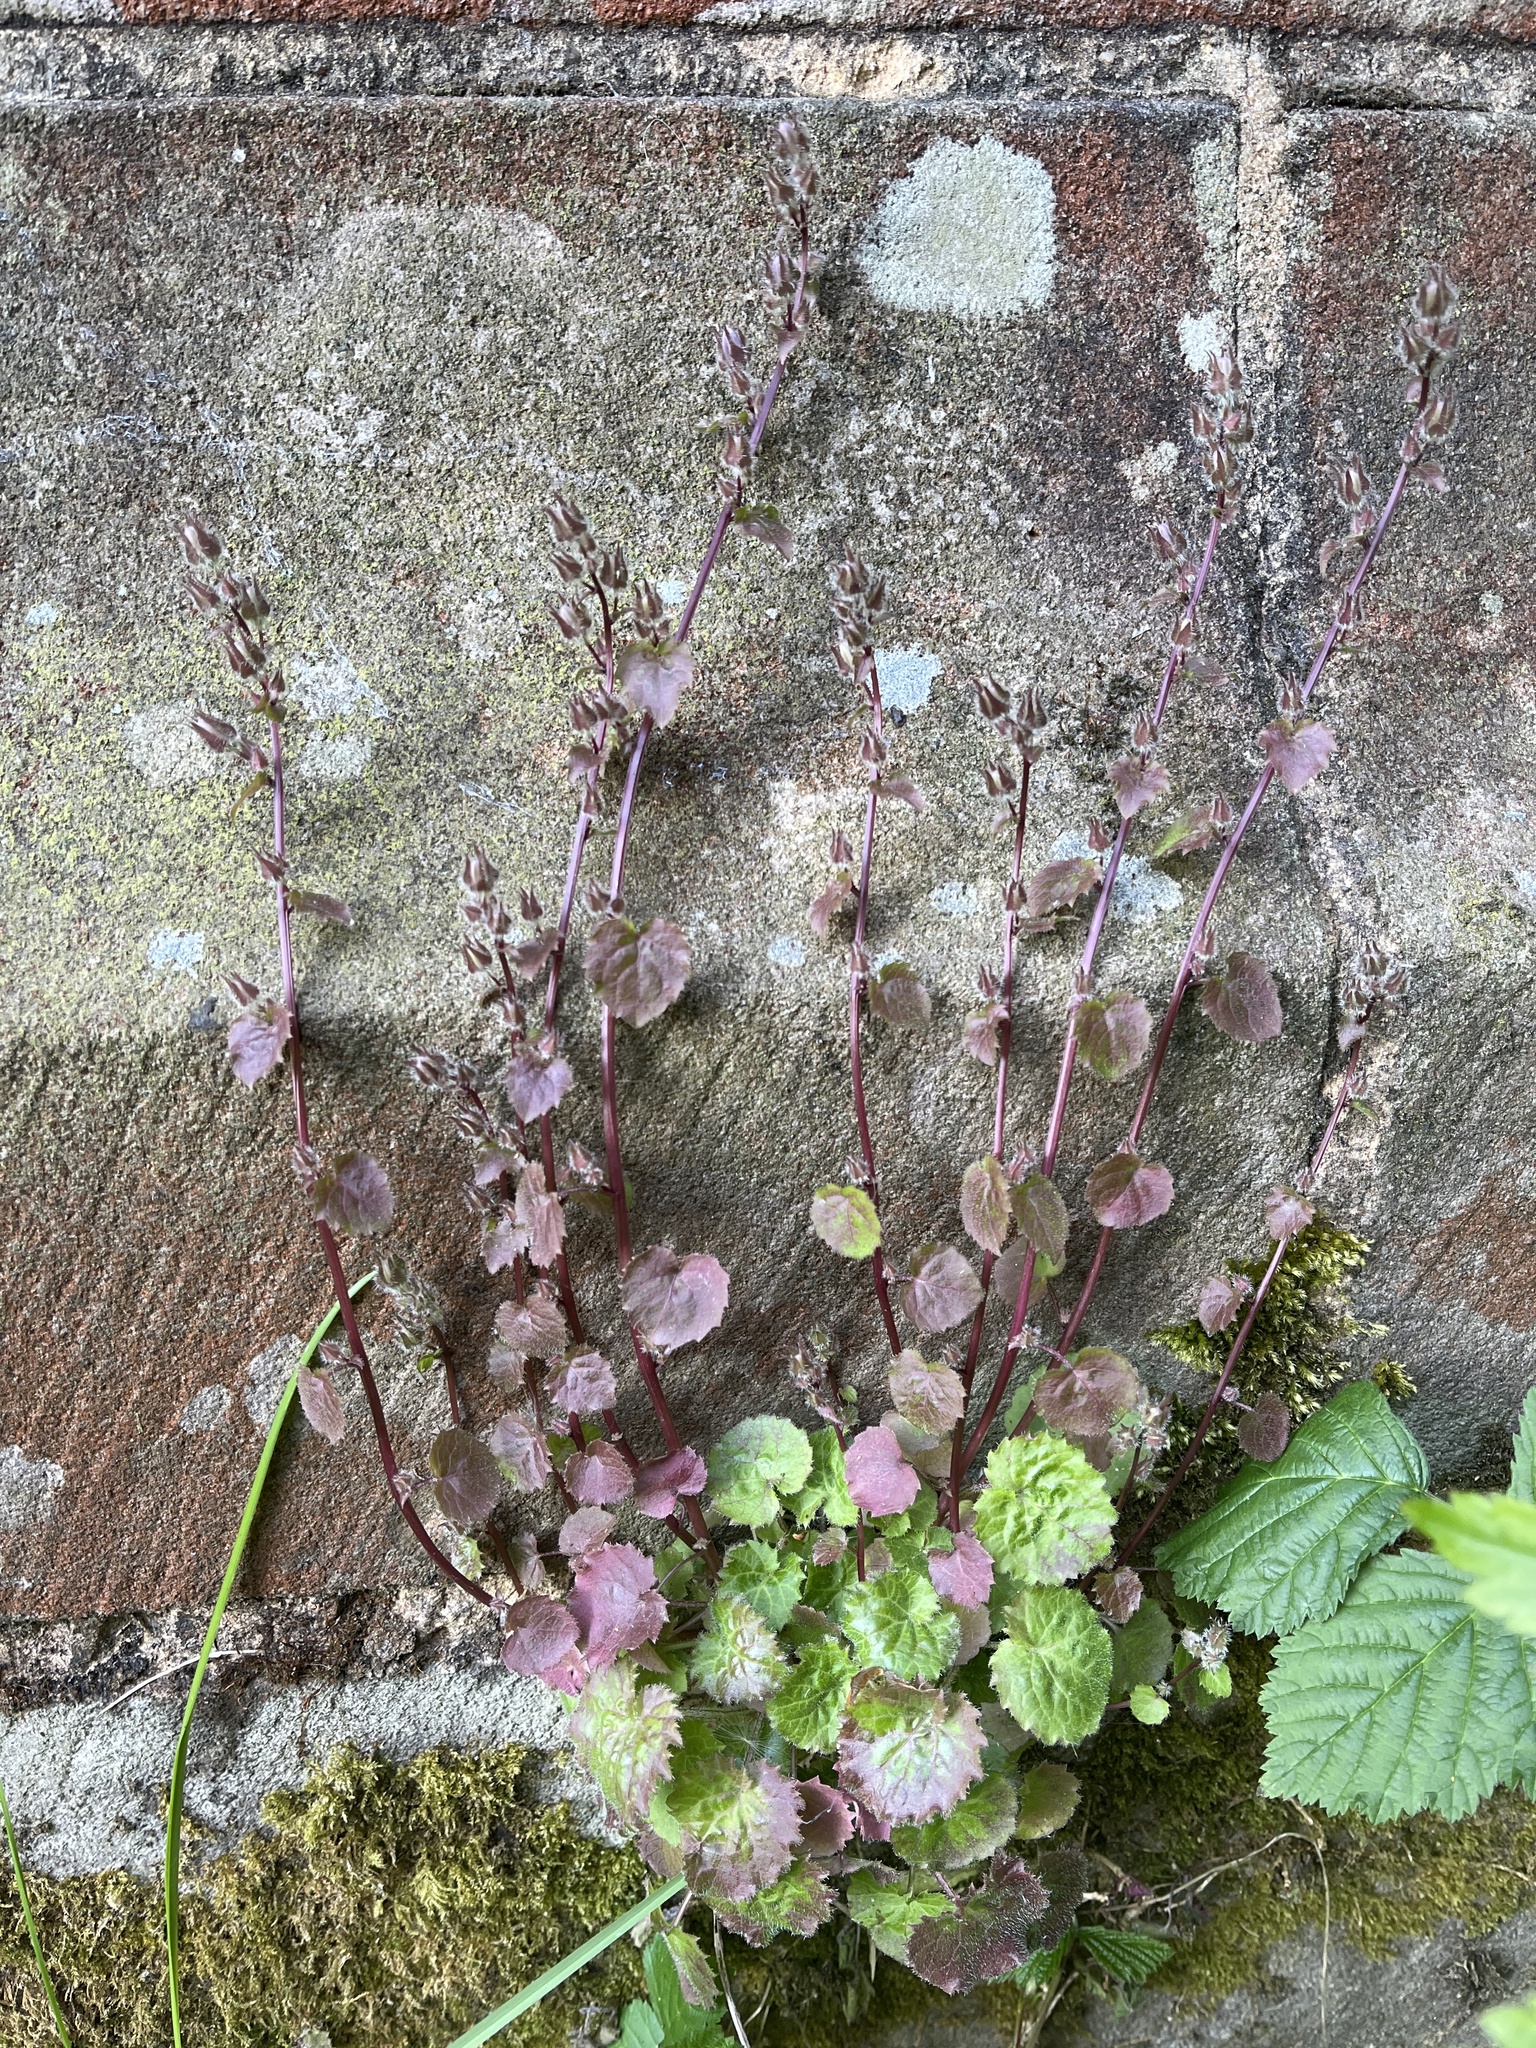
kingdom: Plantae
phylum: Tracheophyta
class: Magnoliopsida
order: Asterales
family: Campanulaceae
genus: Campanula
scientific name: Campanula poscharskyana
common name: Trailing bellflower
